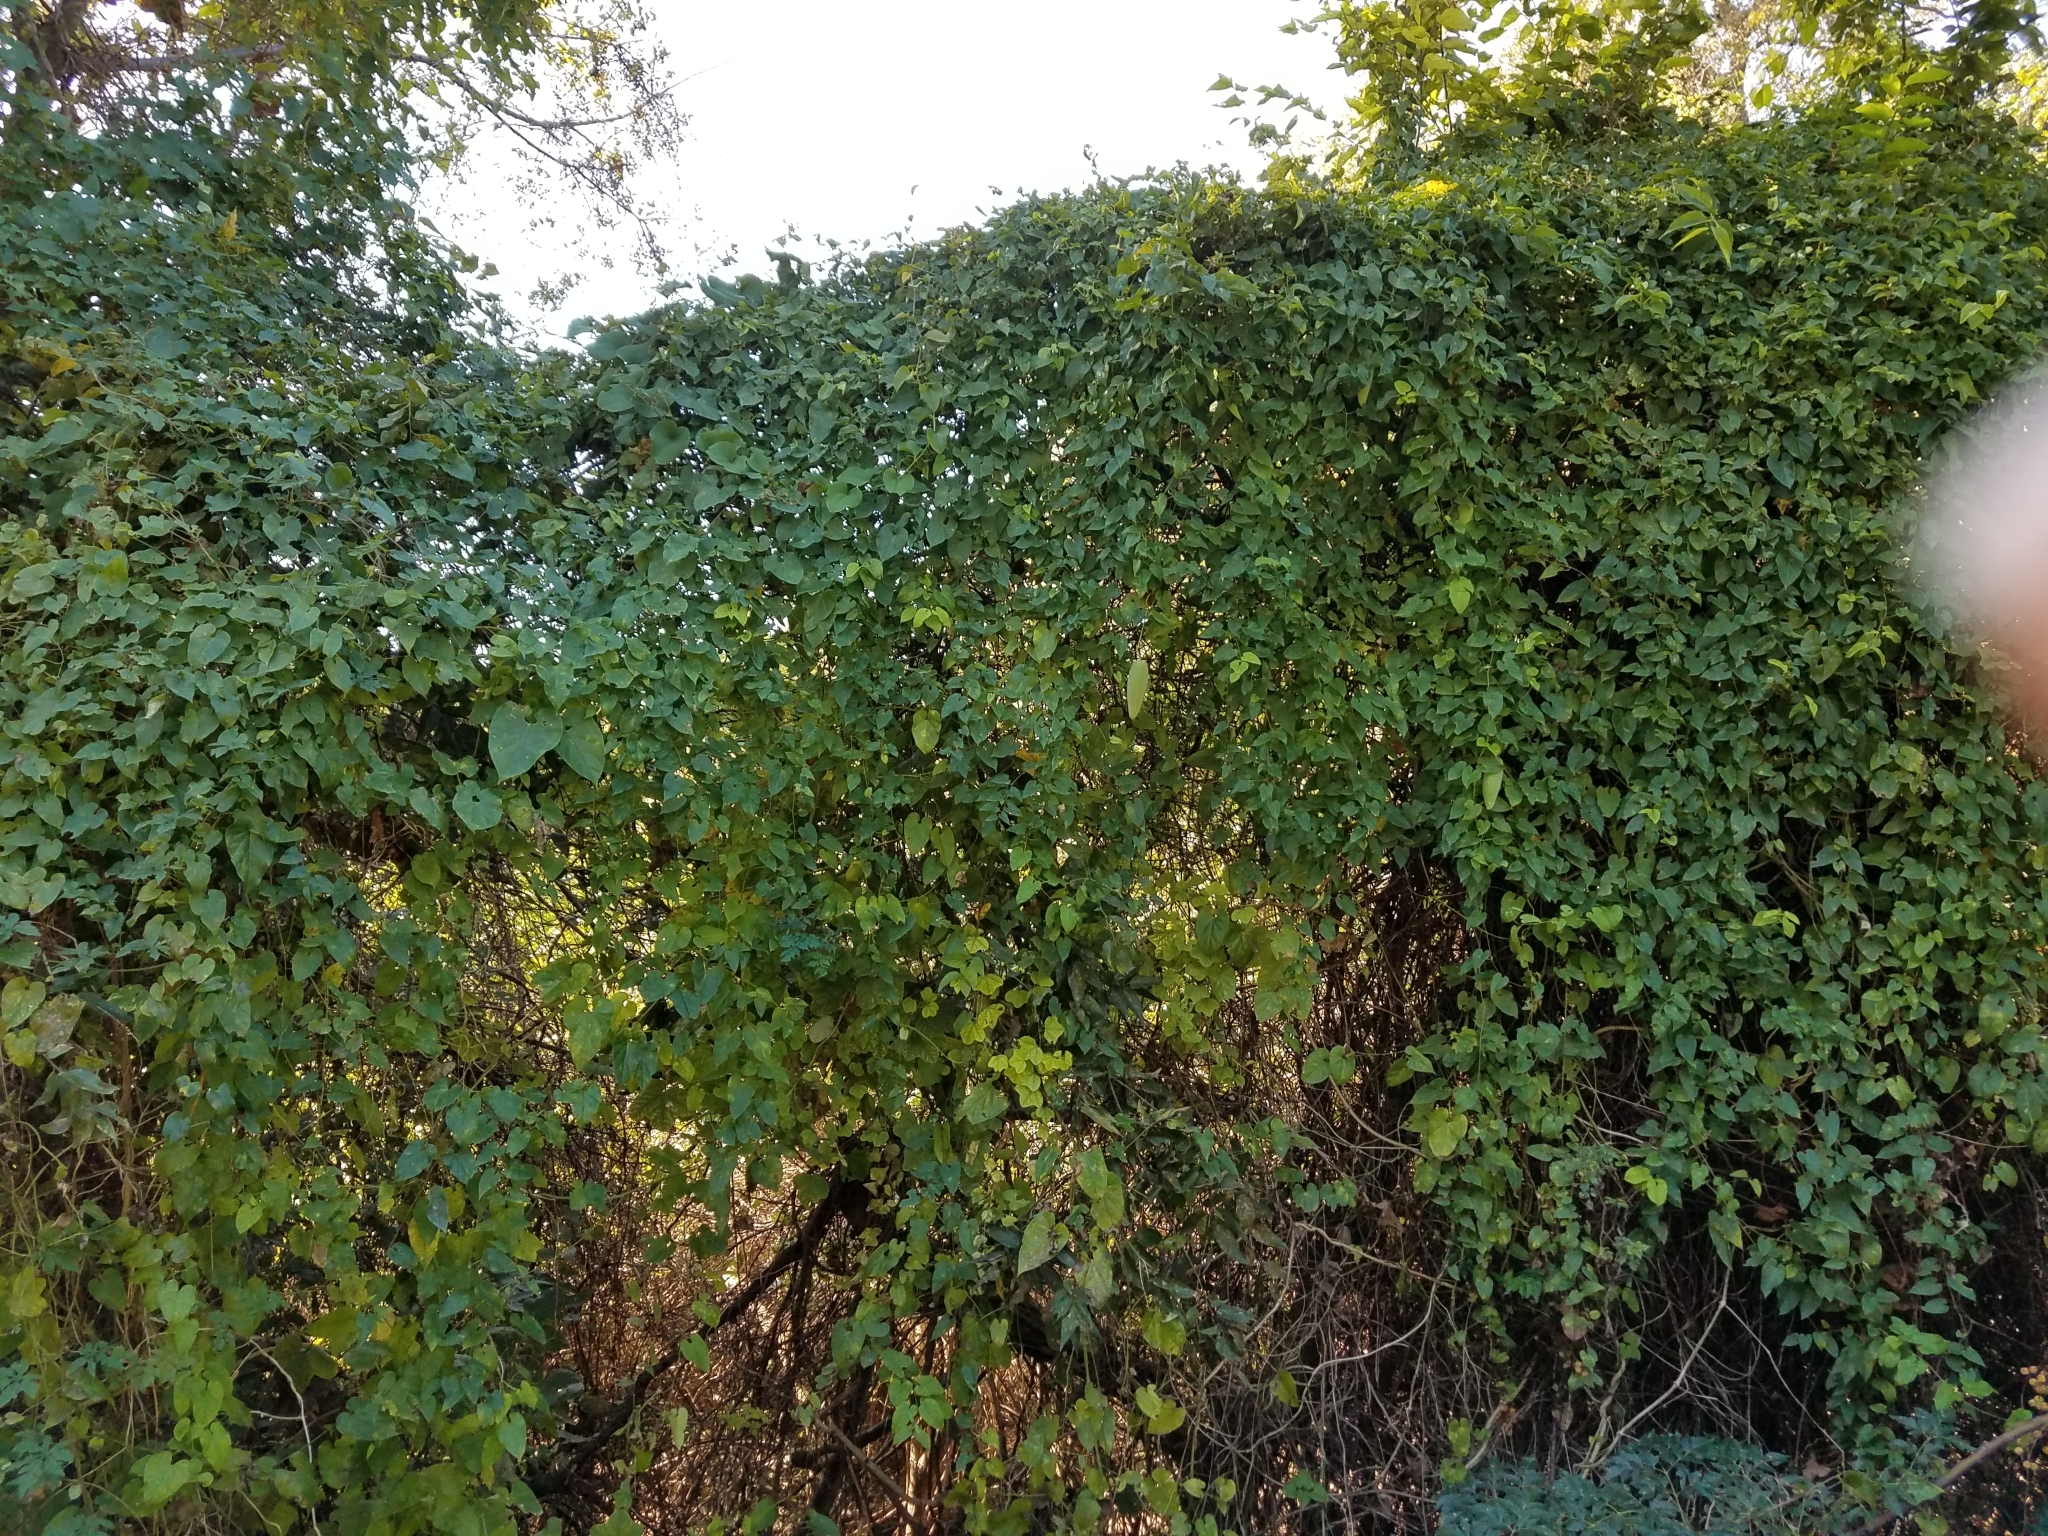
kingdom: Plantae
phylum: Tracheophyta
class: Magnoliopsida
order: Gentianales
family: Apocynaceae
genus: Cynanchum
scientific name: Cynanchum racemosum
